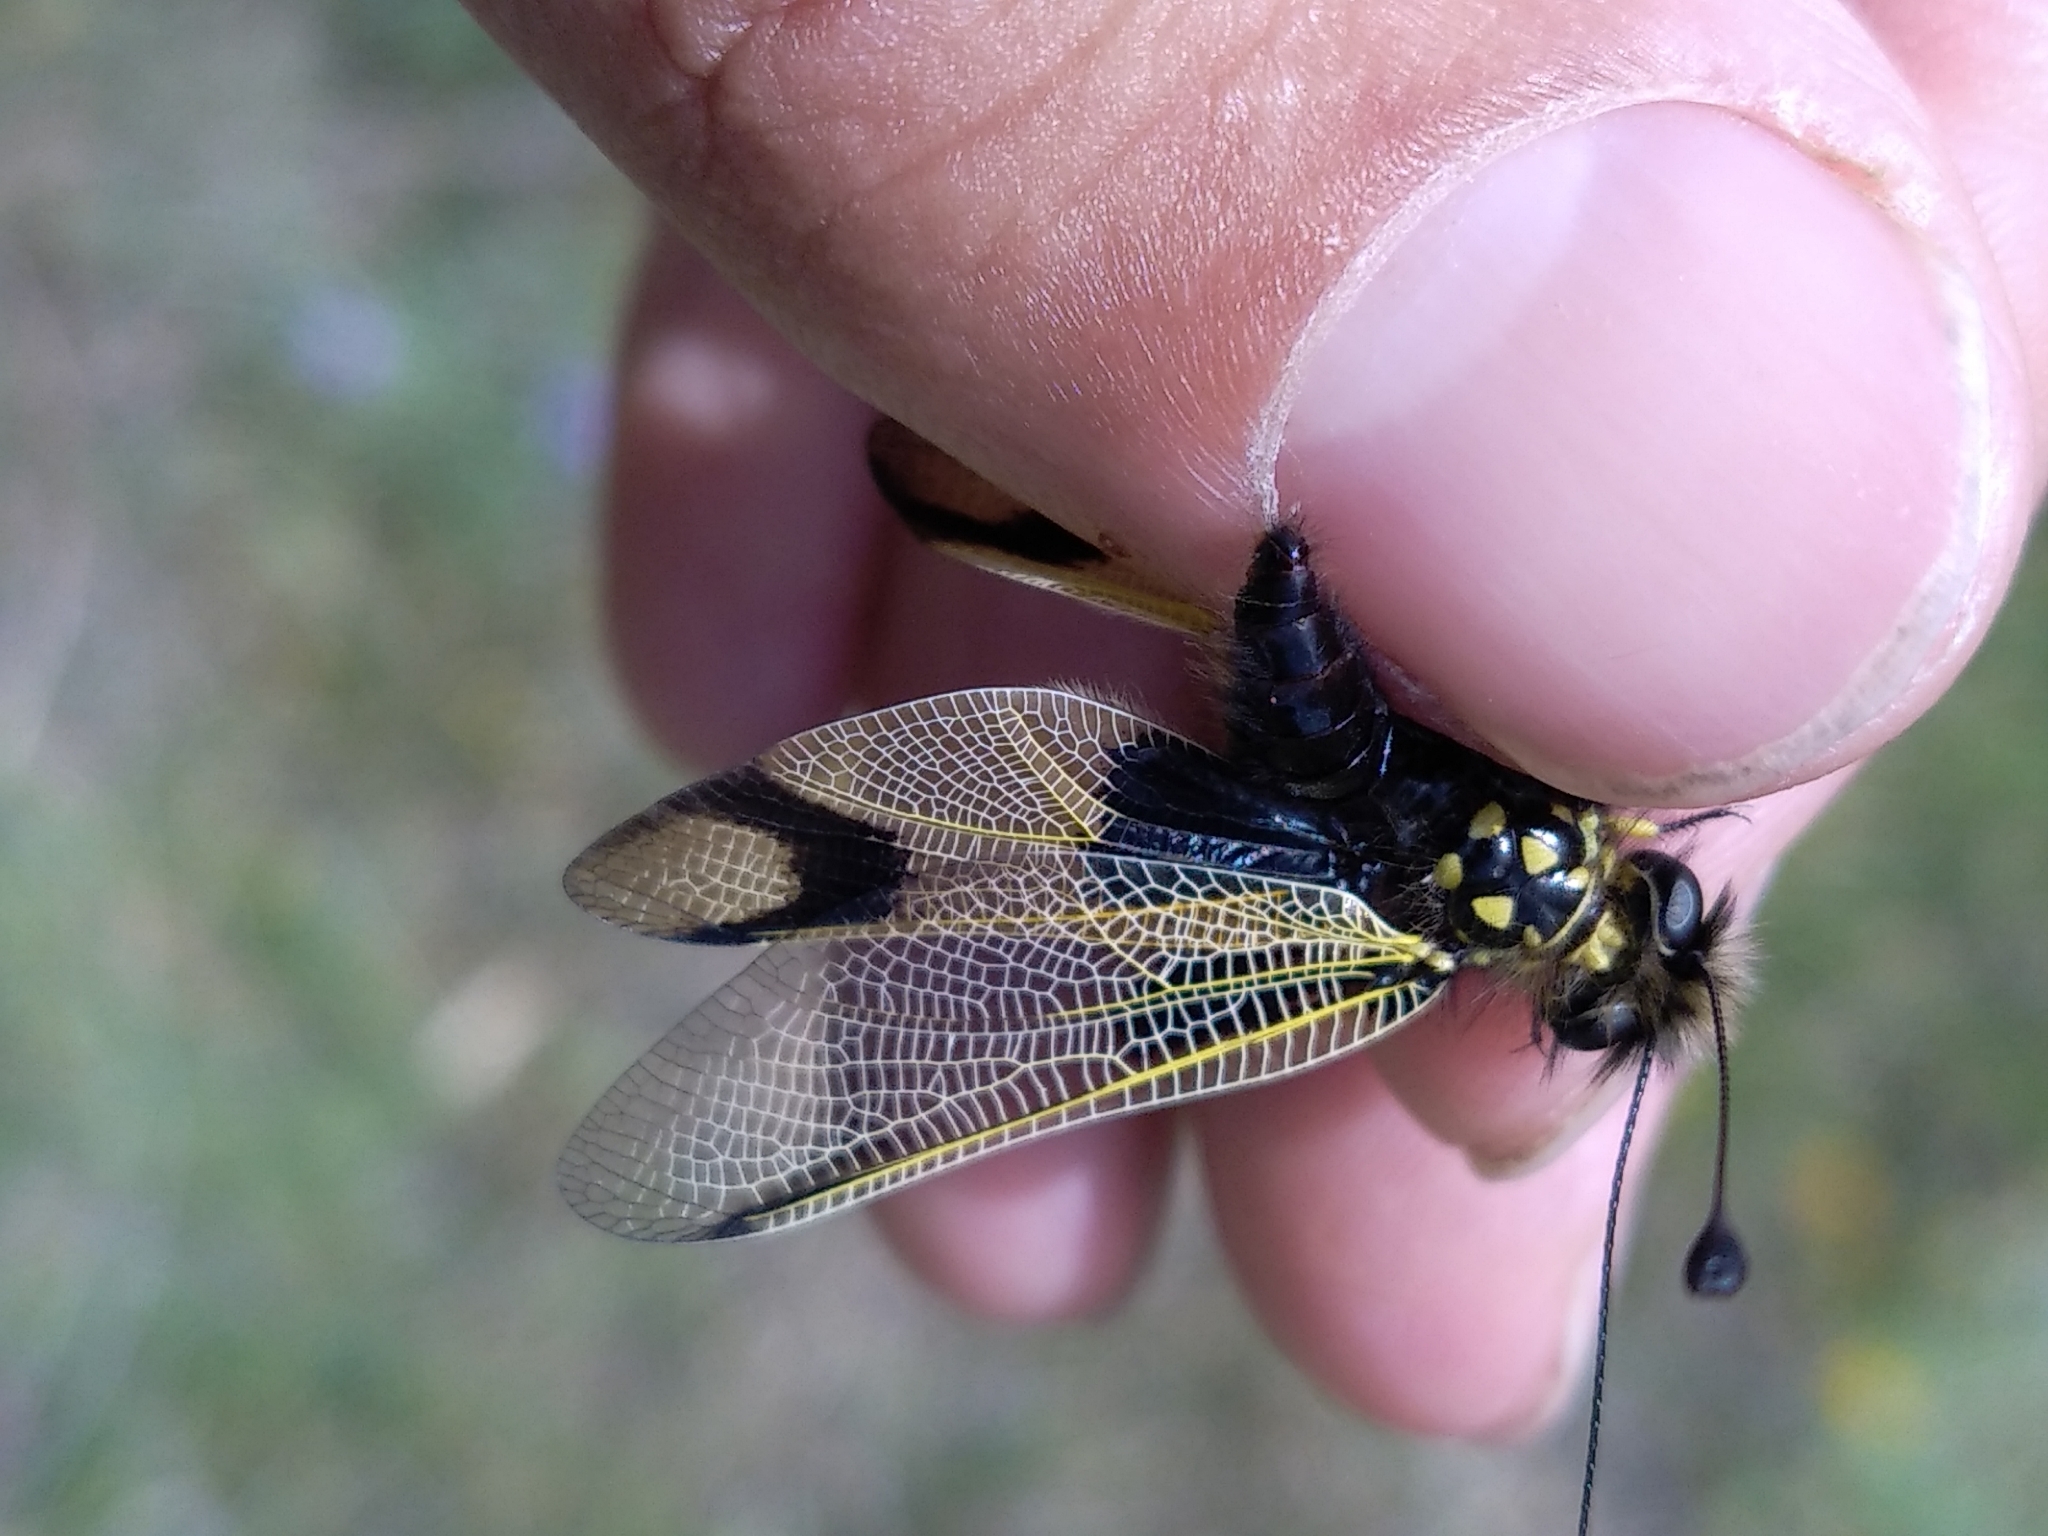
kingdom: Animalia
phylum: Arthropoda
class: Insecta
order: Neuroptera
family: Ascalaphidae
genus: Libelloides
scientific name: Libelloides longicornis
